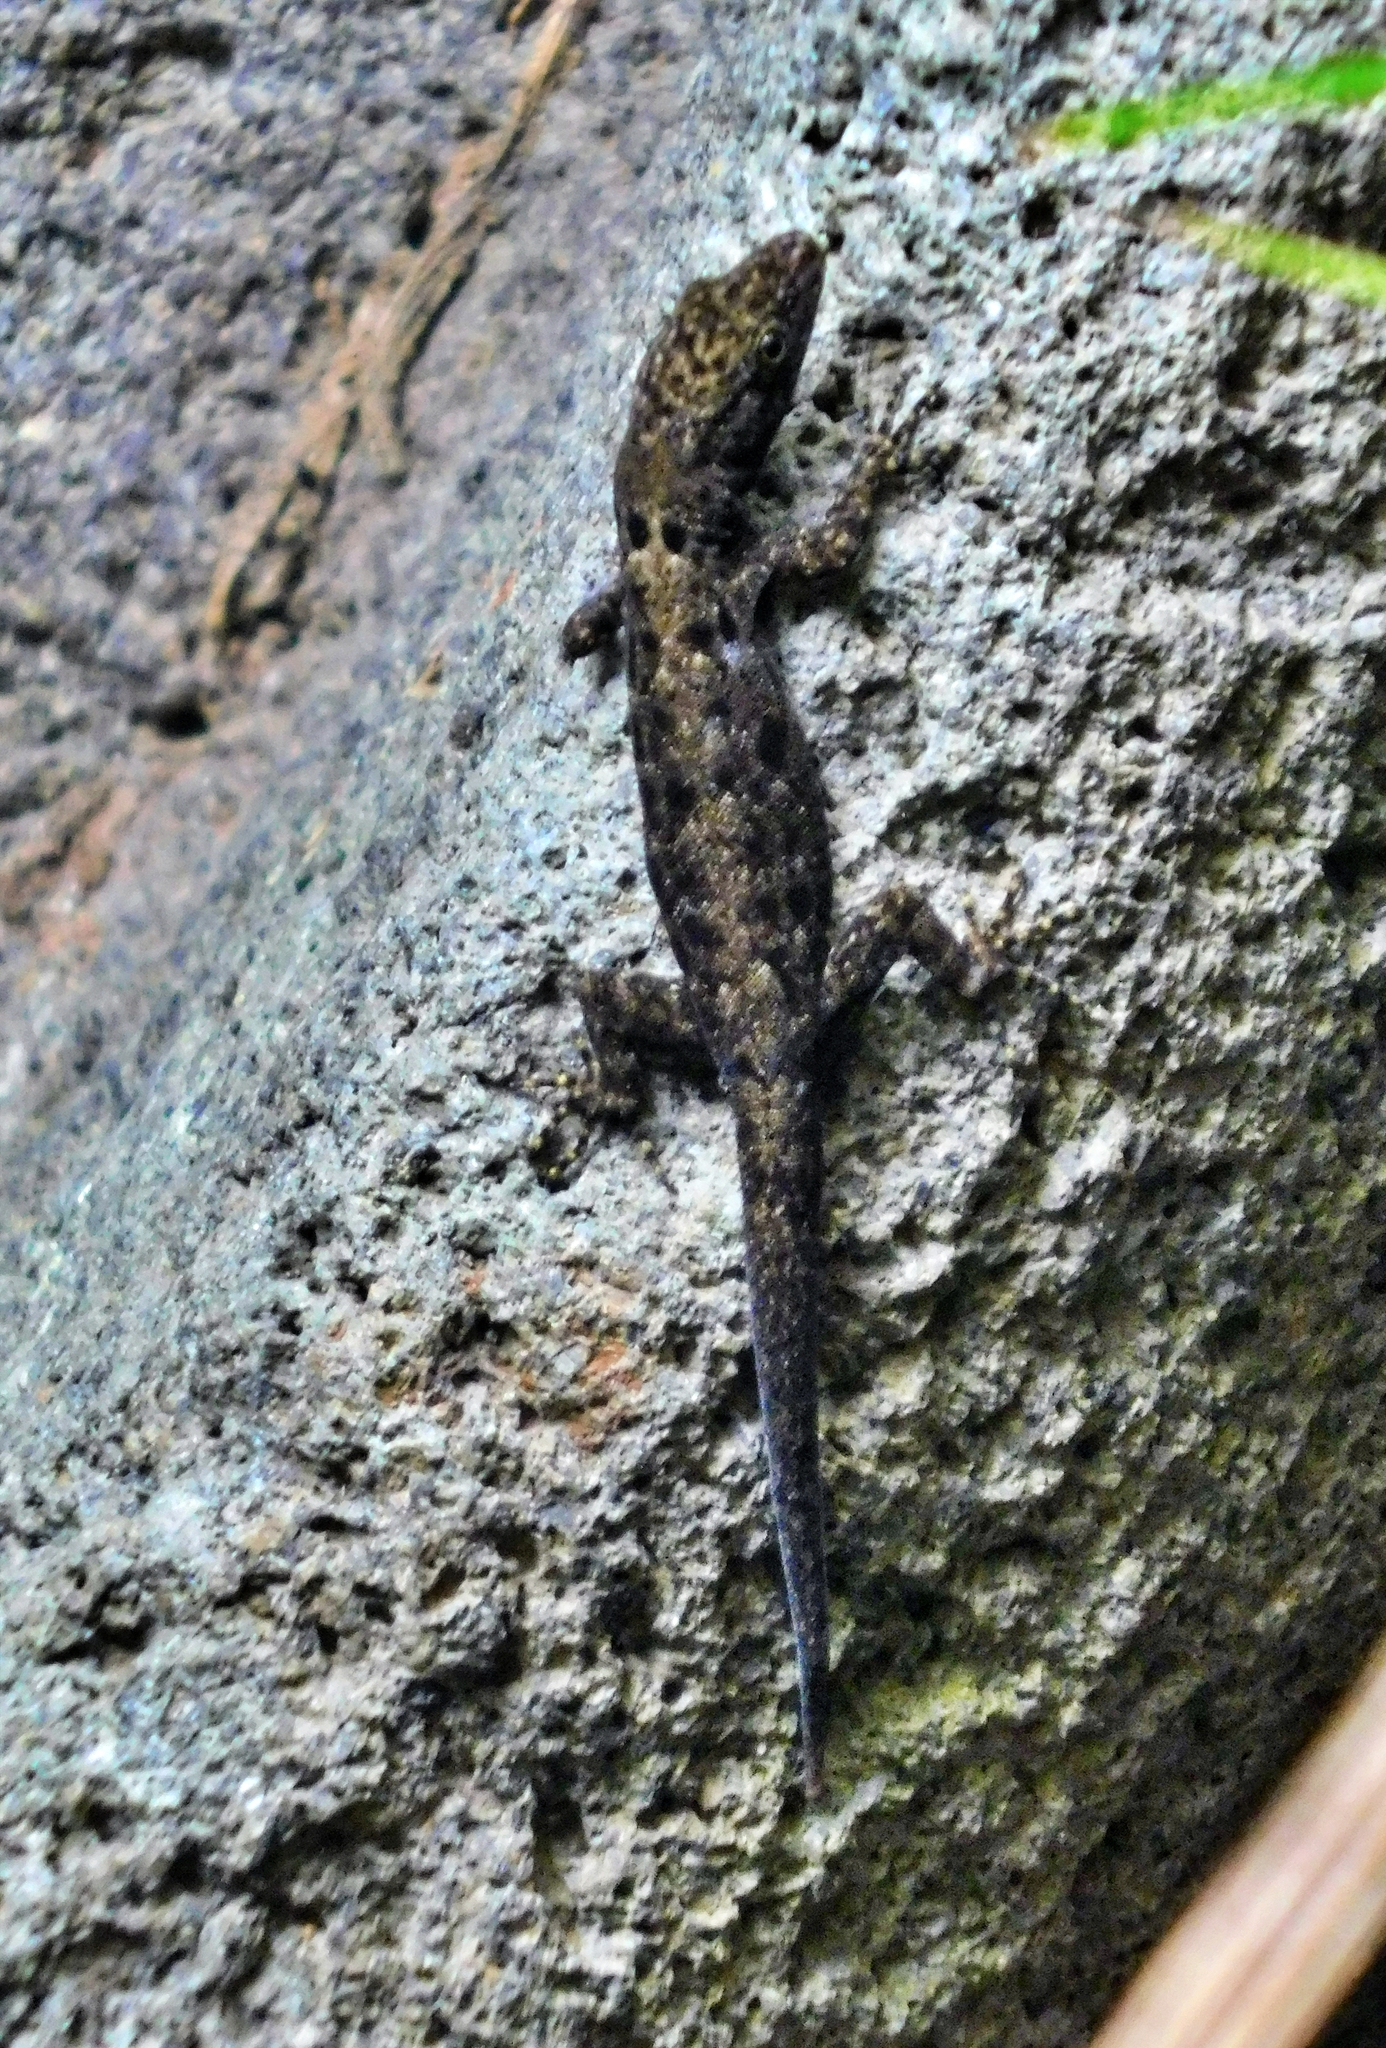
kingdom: Animalia
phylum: Chordata
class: Squamata
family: Sphaerodactylidae
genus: Gonatodes
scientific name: Gonatodes albogularis
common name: Yellow-headed gecko
